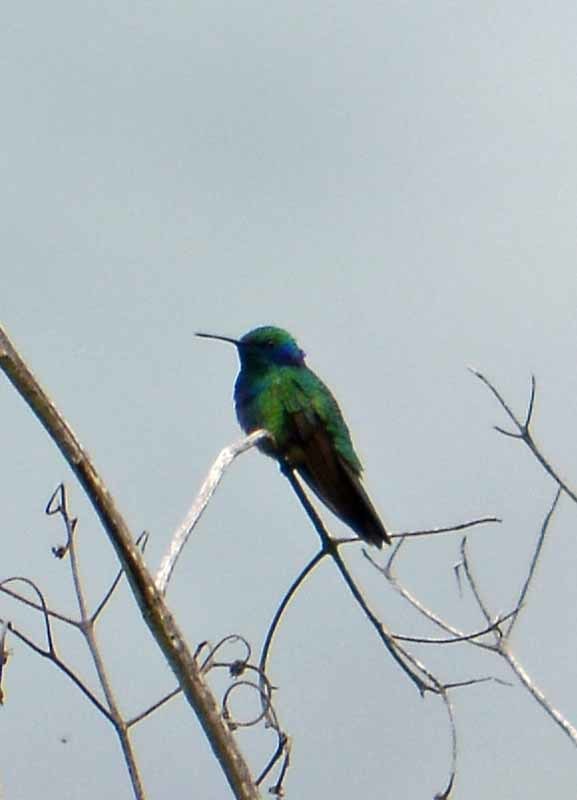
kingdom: Animalia
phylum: Chordata
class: Aves
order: Apodiformes
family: Trochilidae
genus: Colibri
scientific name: Colibri thalassinus
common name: Green violetear
